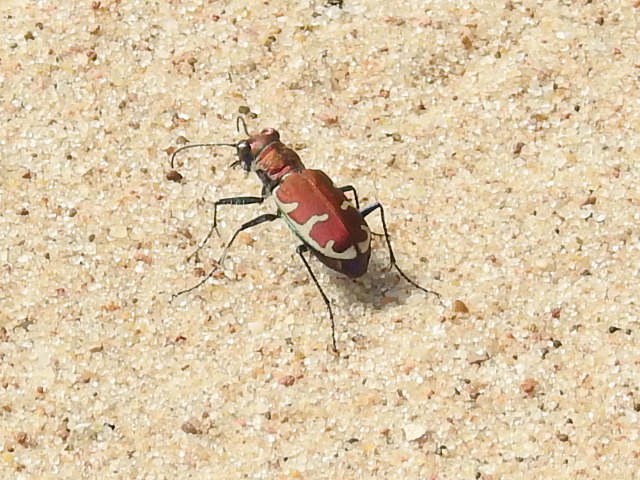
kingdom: Animalia
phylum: Arthropoda
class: Insecta
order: Coleoptera
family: Carabidae
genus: Cicindela
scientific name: Cicindela formosa
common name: Big sand tiger beetle
